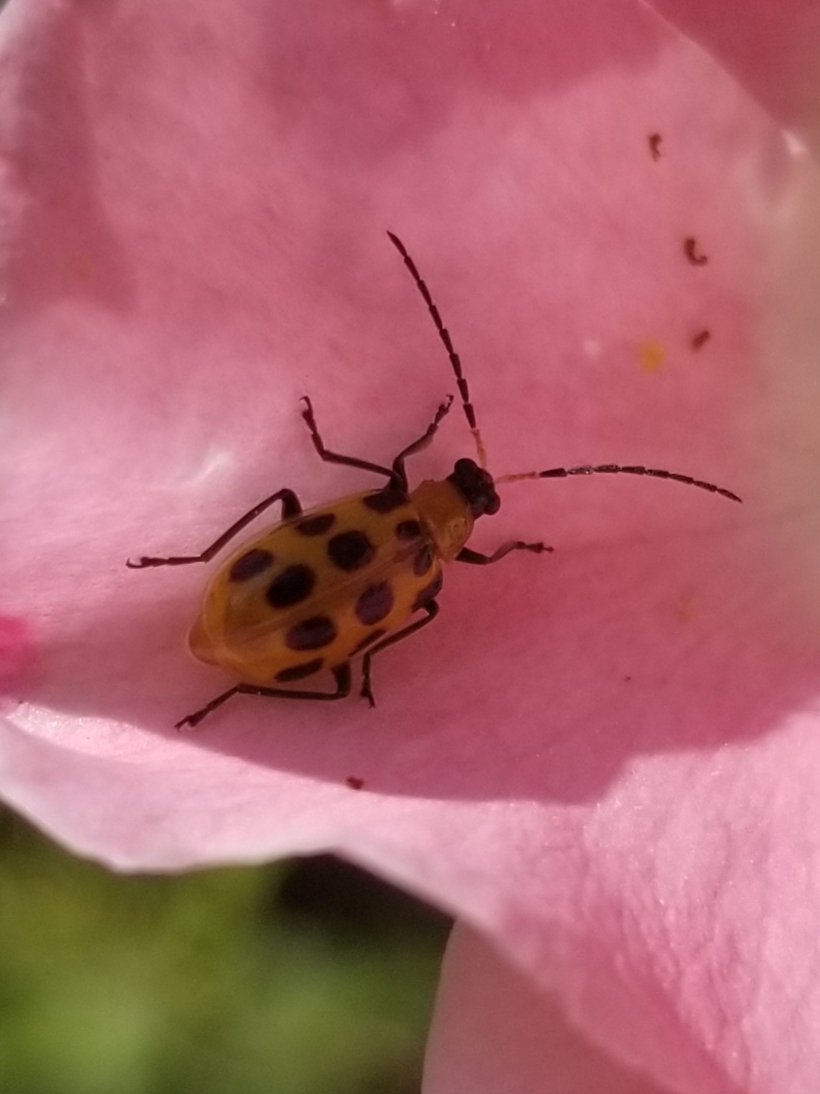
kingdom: Animalia
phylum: Arthropoda
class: Insecta
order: Coleoptera
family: Chrysomelidae
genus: Diabrotica
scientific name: Diabrotica undecimpunctata
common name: Spotted cucumber beetle
